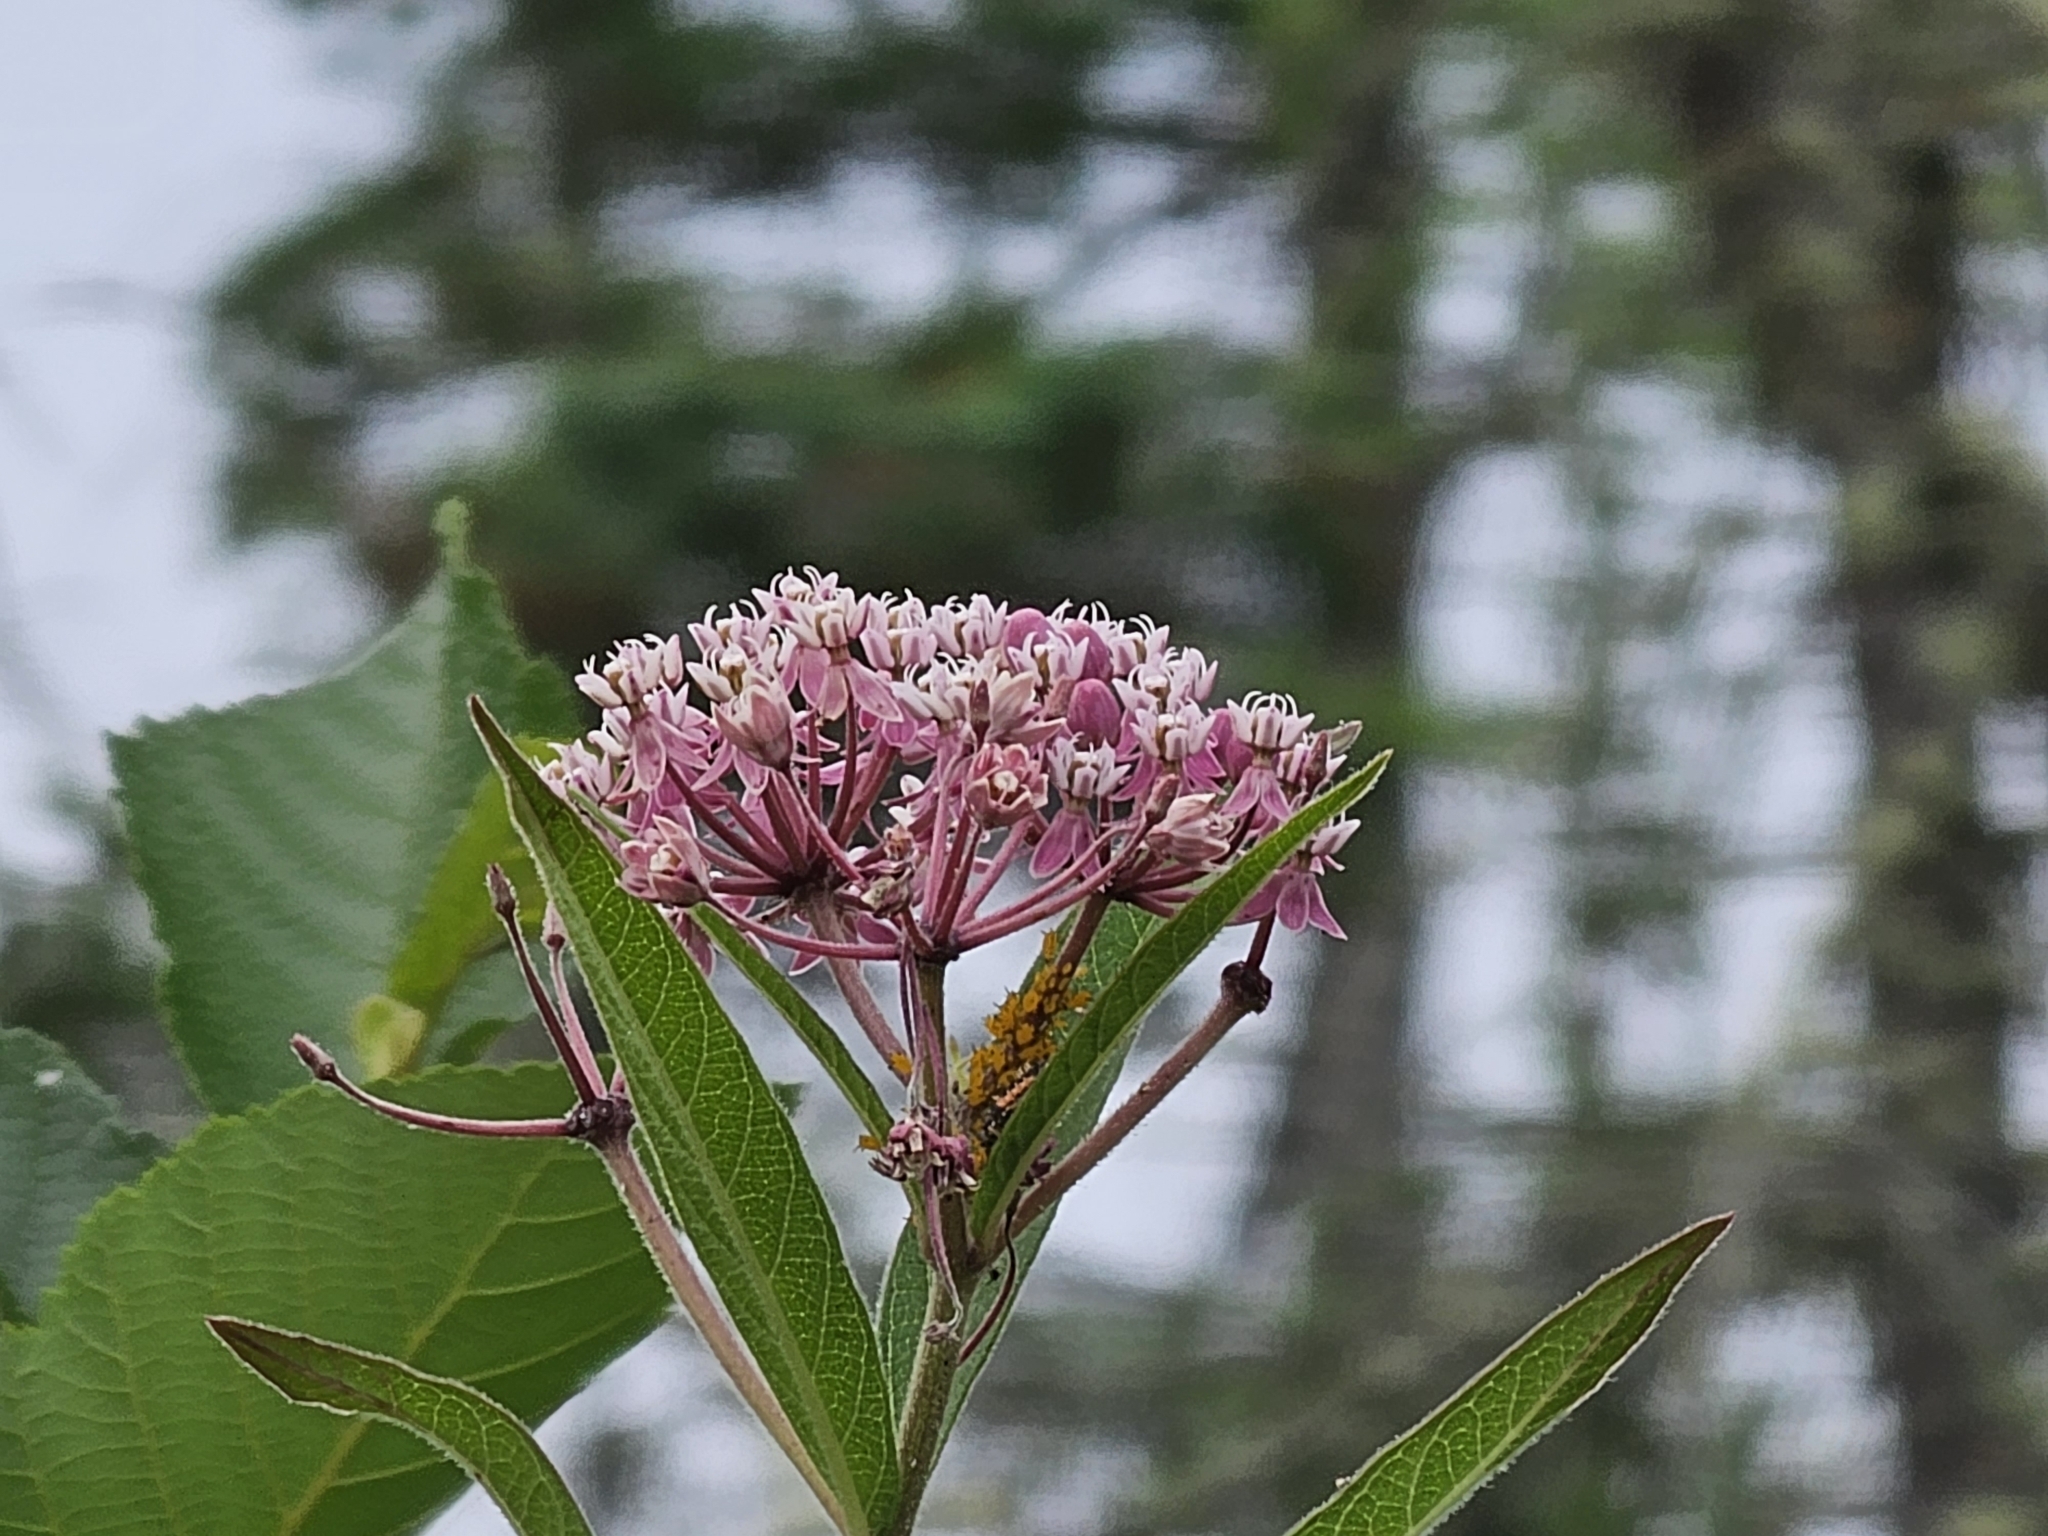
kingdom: Plantae
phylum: Tracheophyta
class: Magnoliopsida
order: Gentianales
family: Apocynaceae
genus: Asclepias
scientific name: Asclepias incarnata
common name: Swamp milkweed
